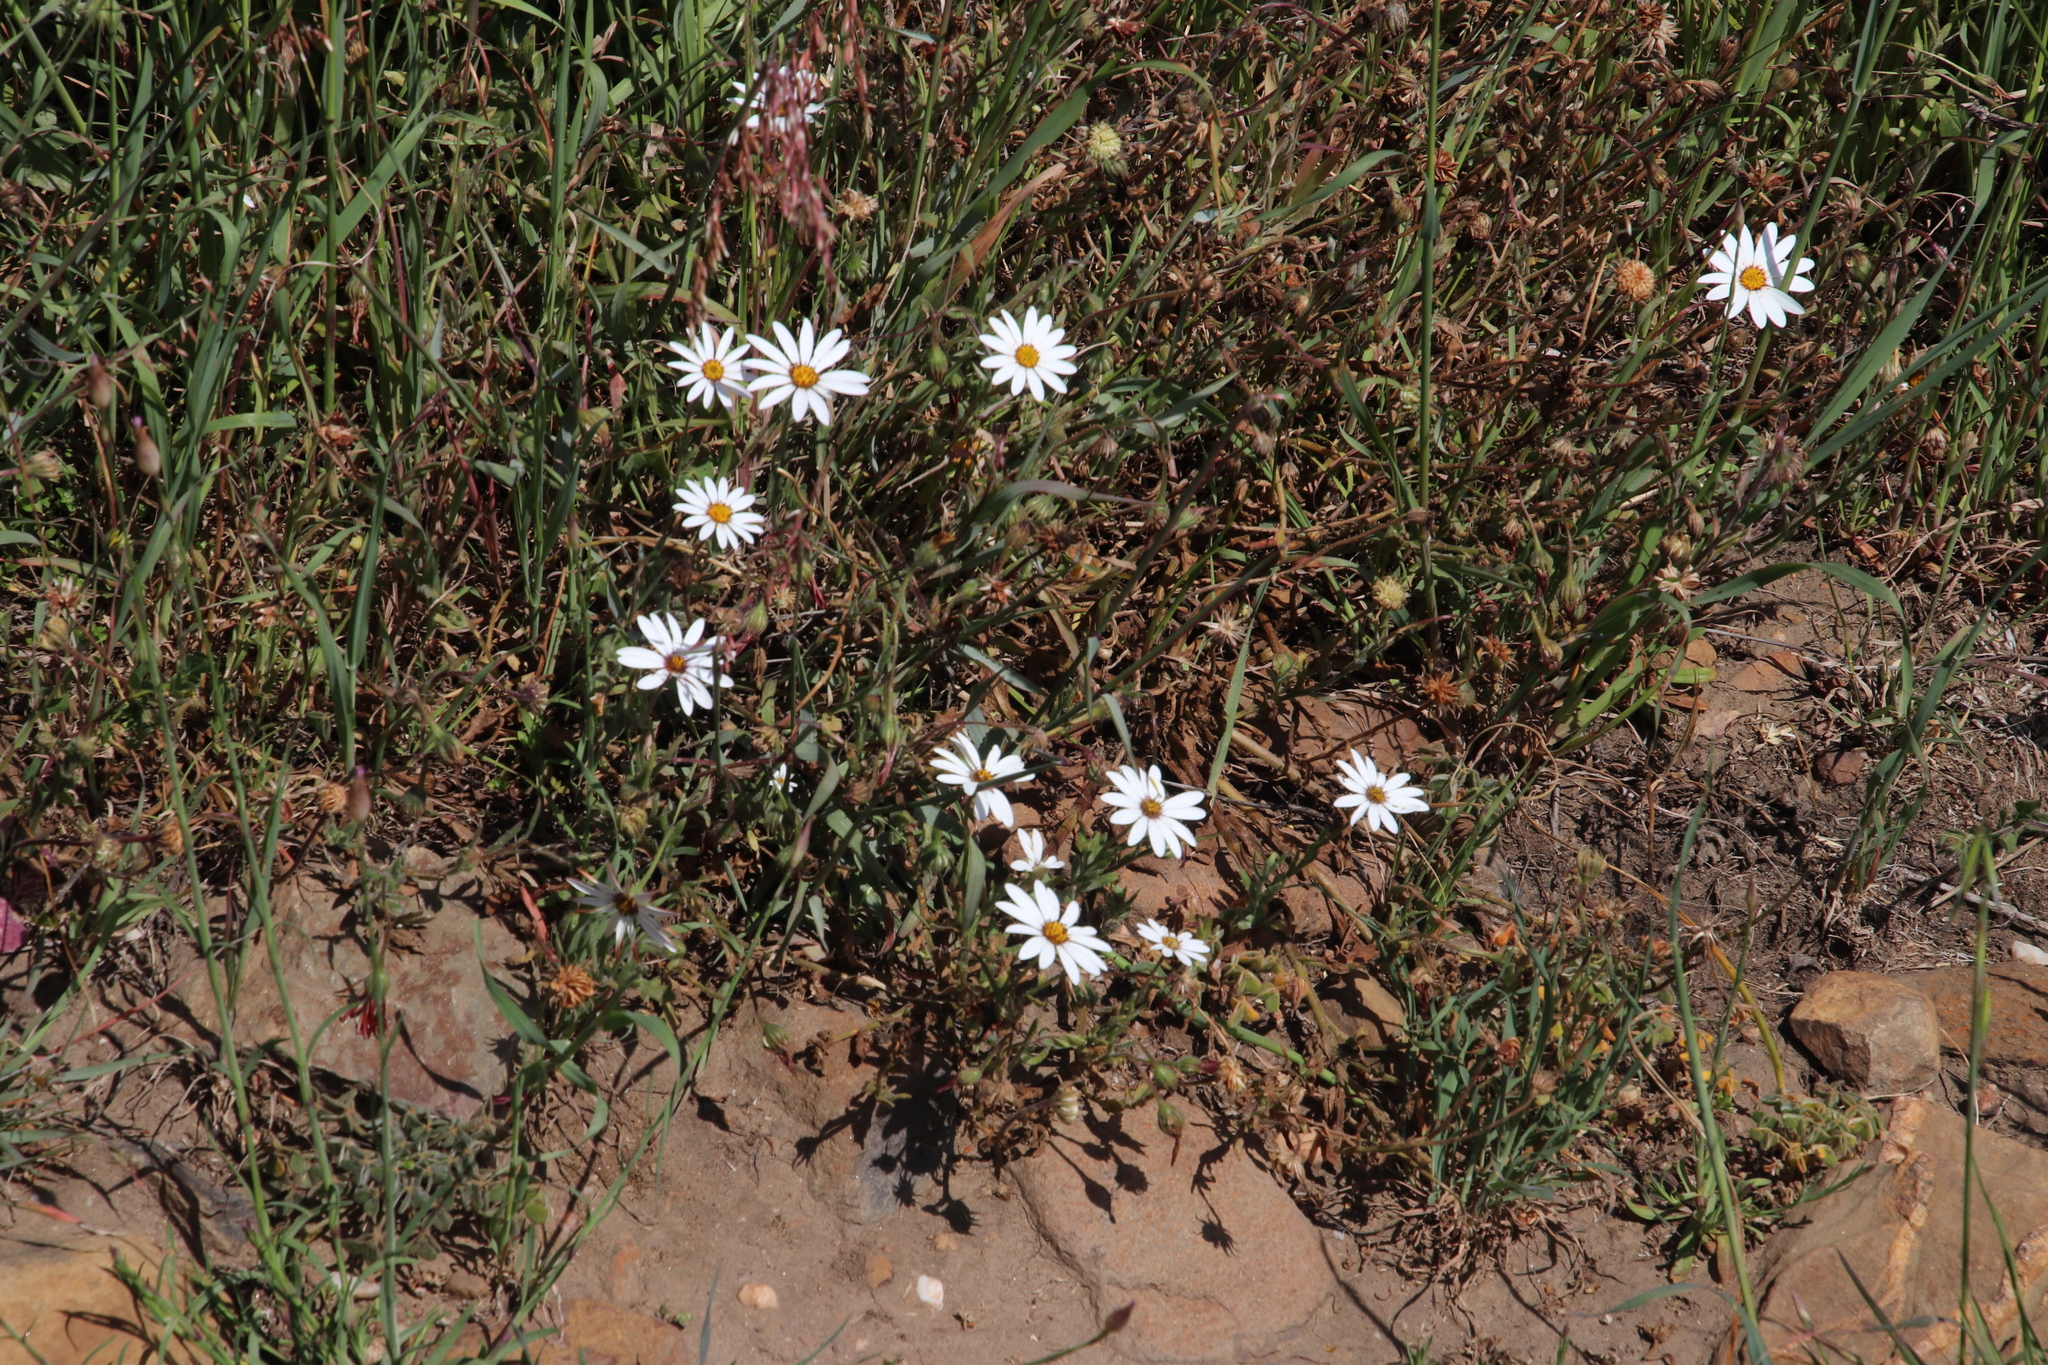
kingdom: Plantae
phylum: Tracheophyta
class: Magnoliopsida
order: Asterales
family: Asteraceae
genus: Dimorphotheca
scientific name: Dimorphotheca pluvialis
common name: Weather prophet
